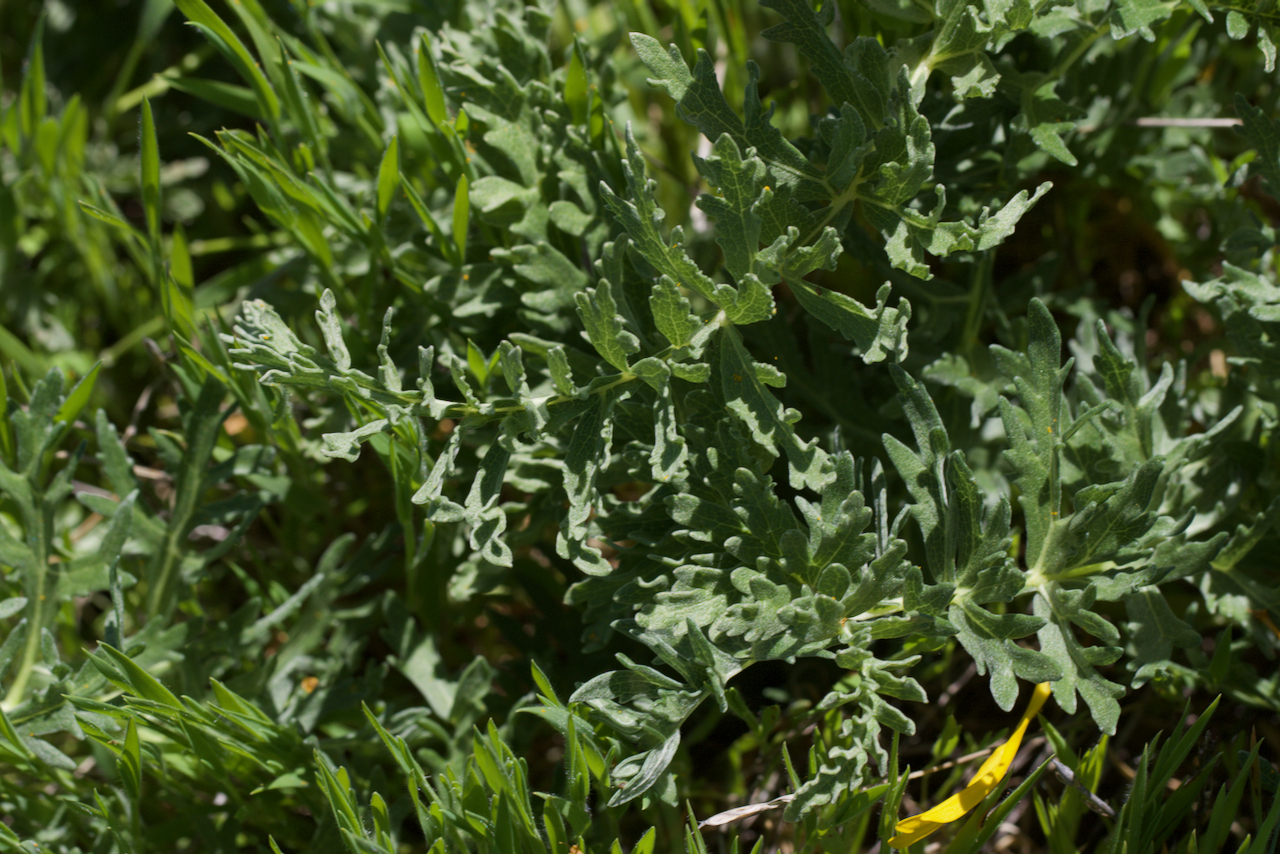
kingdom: Plantae
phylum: Tracheophyta
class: Magnoliopsida
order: Asterales
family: Asteraceae
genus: Balsamorhiza
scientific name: Balsamorhiza macrolepis
